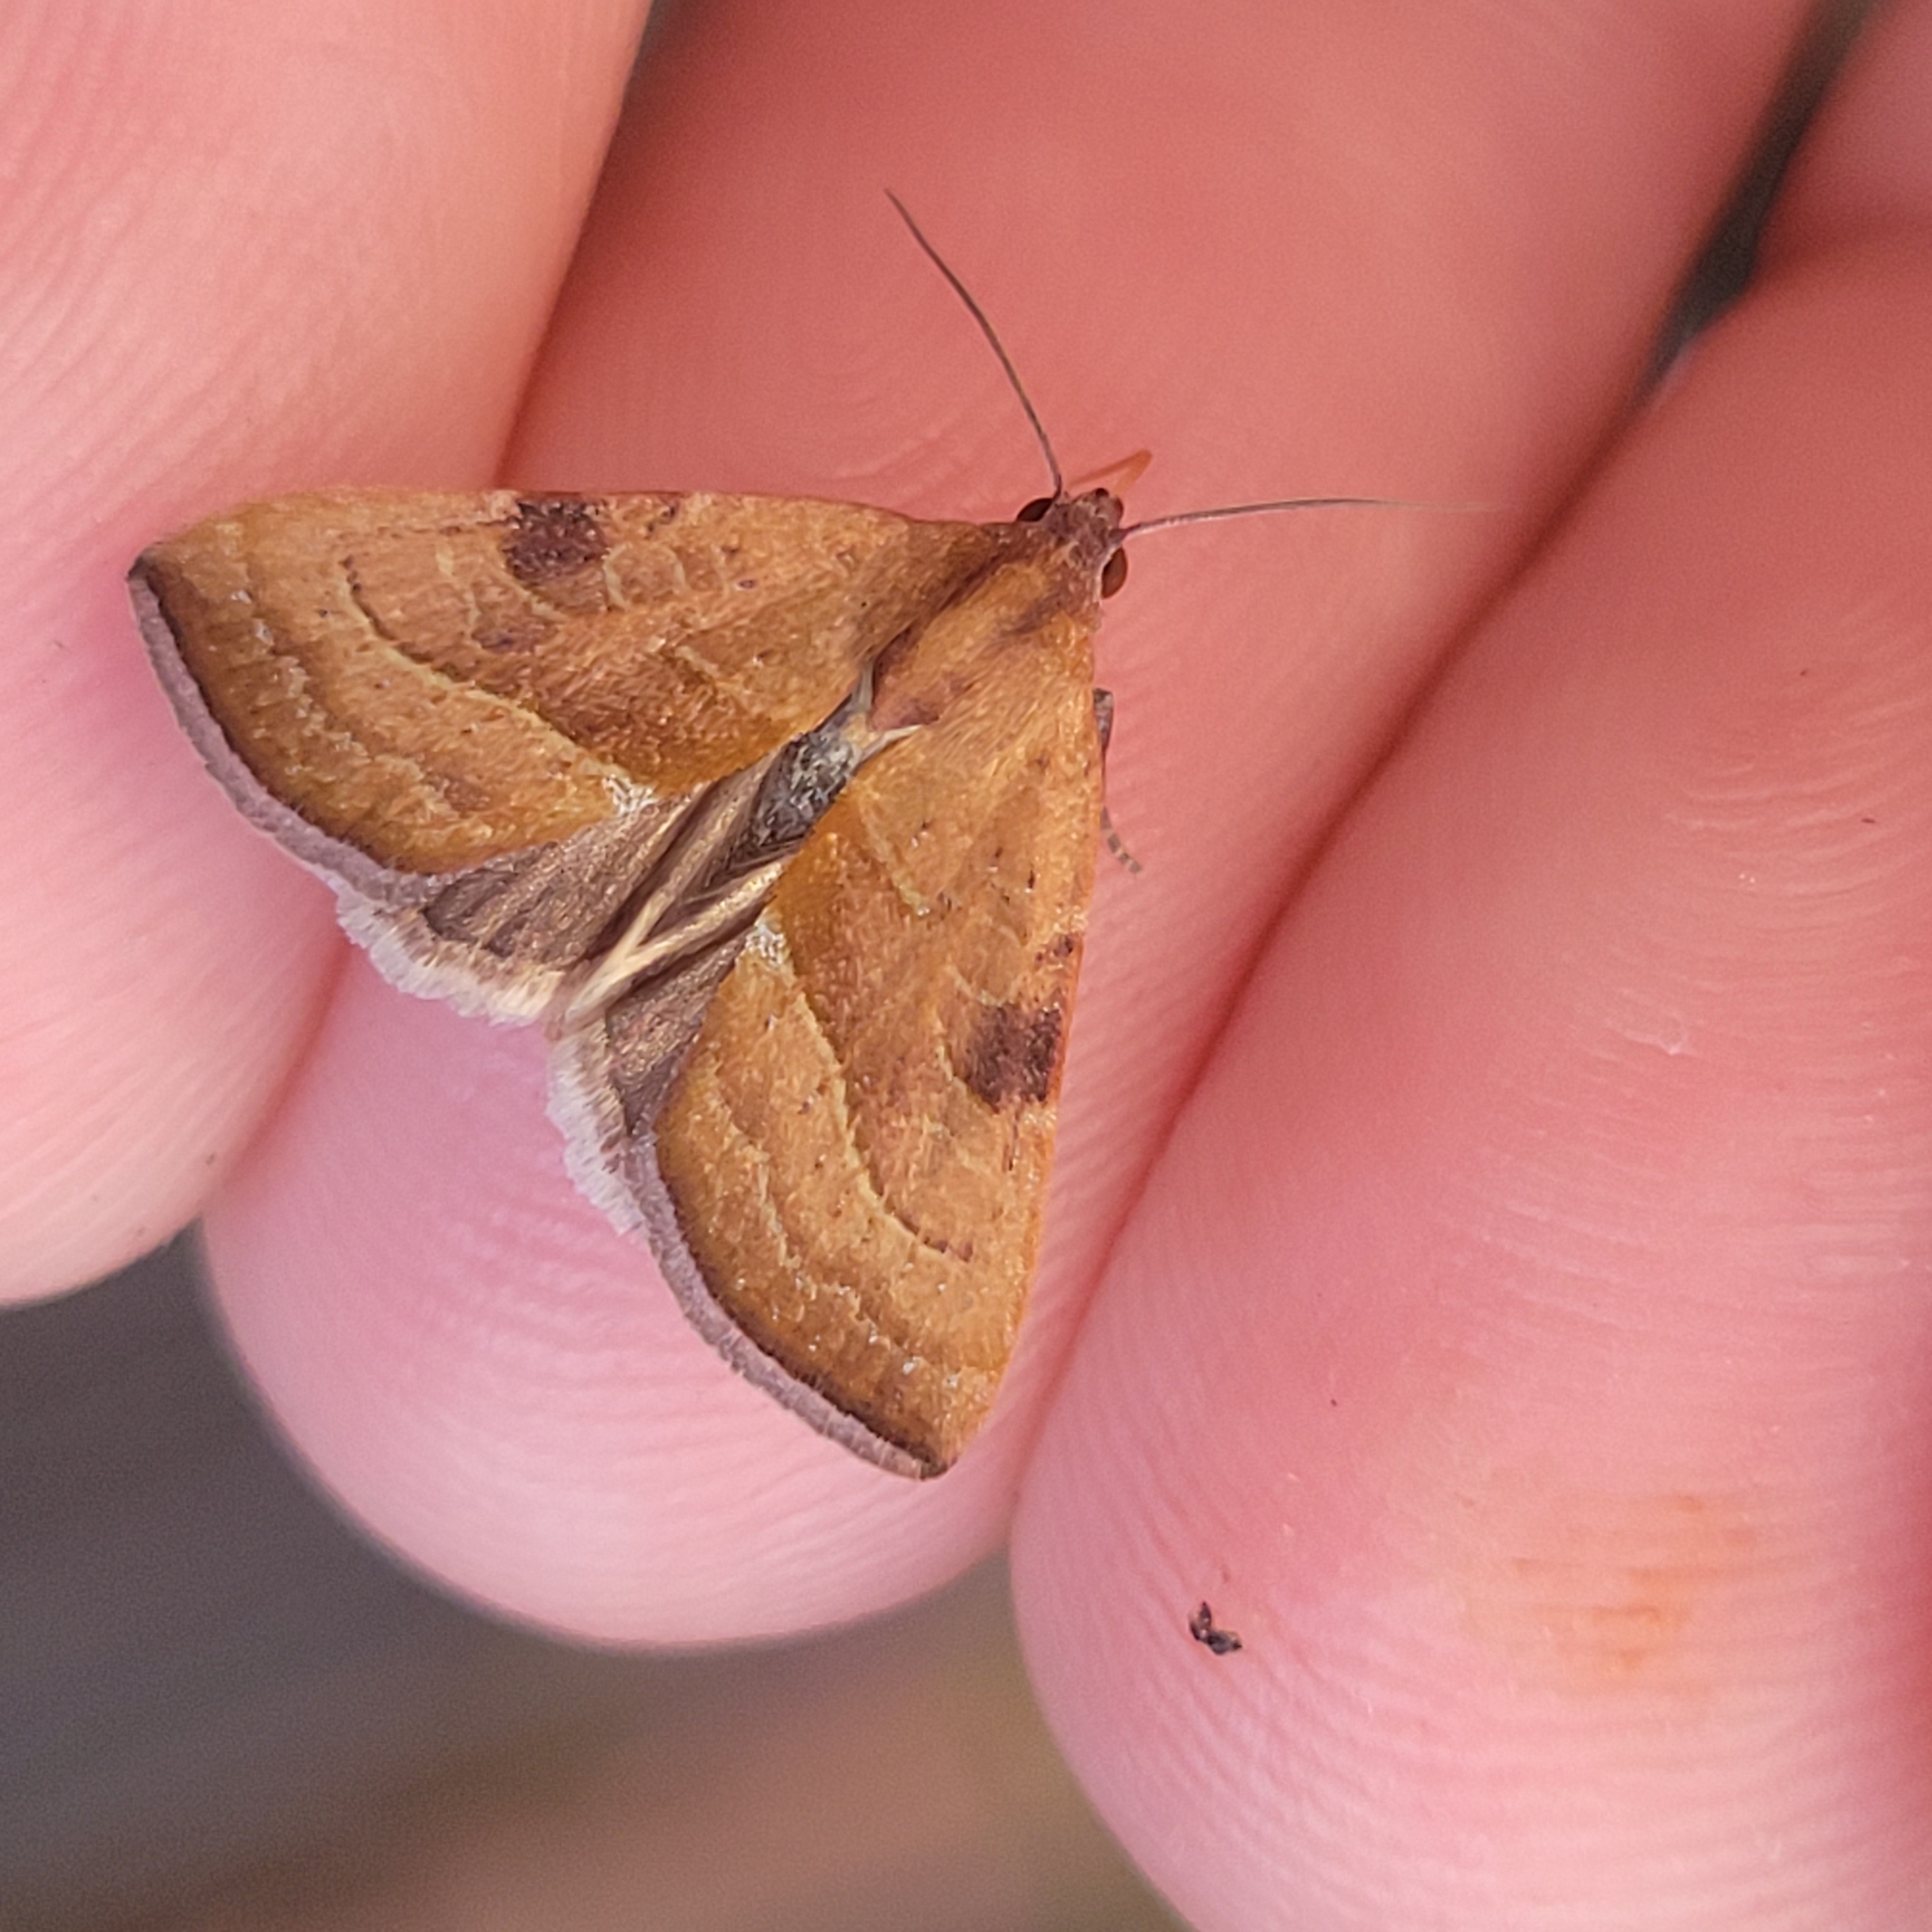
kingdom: Animalia
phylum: Arthropoda
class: Insecta
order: Lepidoptera
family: Noctuidae
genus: Galgula
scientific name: Galgula partita
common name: Wedgeling
